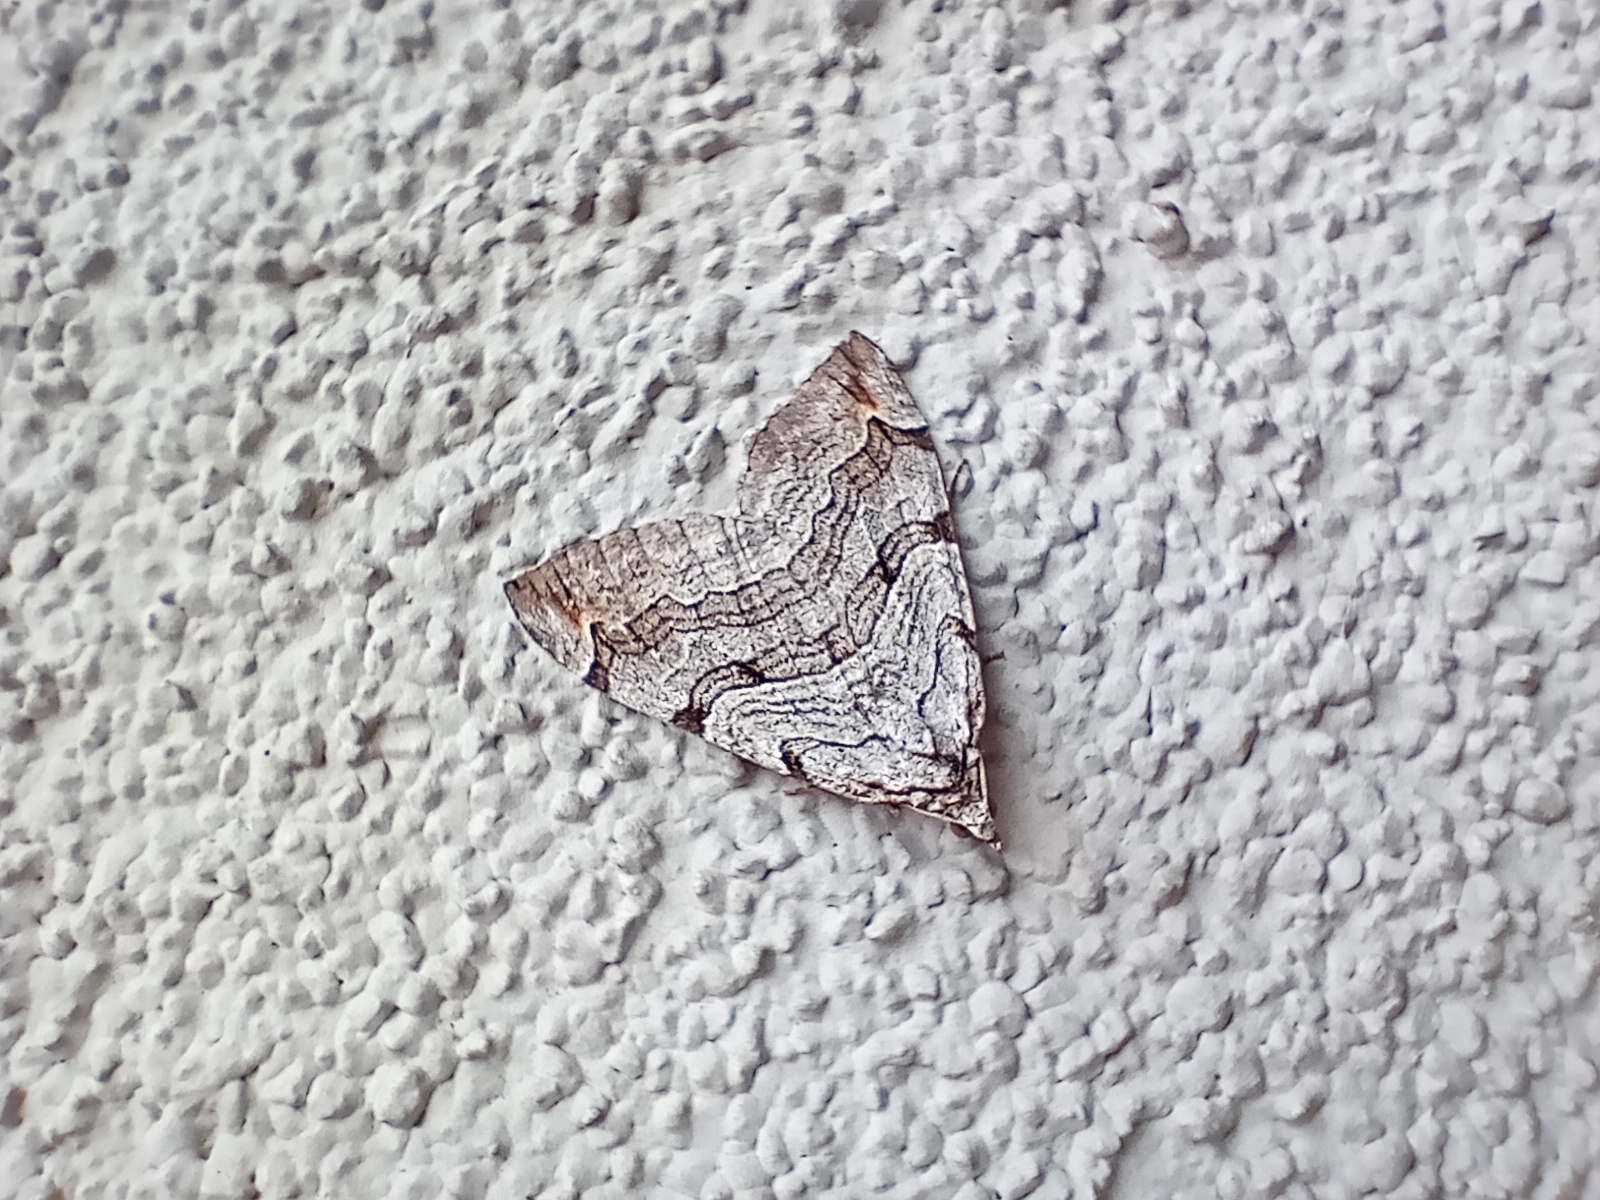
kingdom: Animalia
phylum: Arthropoda
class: Insecta
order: Lepidoptera
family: Geometridae
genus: Aplocera
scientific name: Aplocera plagiata
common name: Treble-bar
